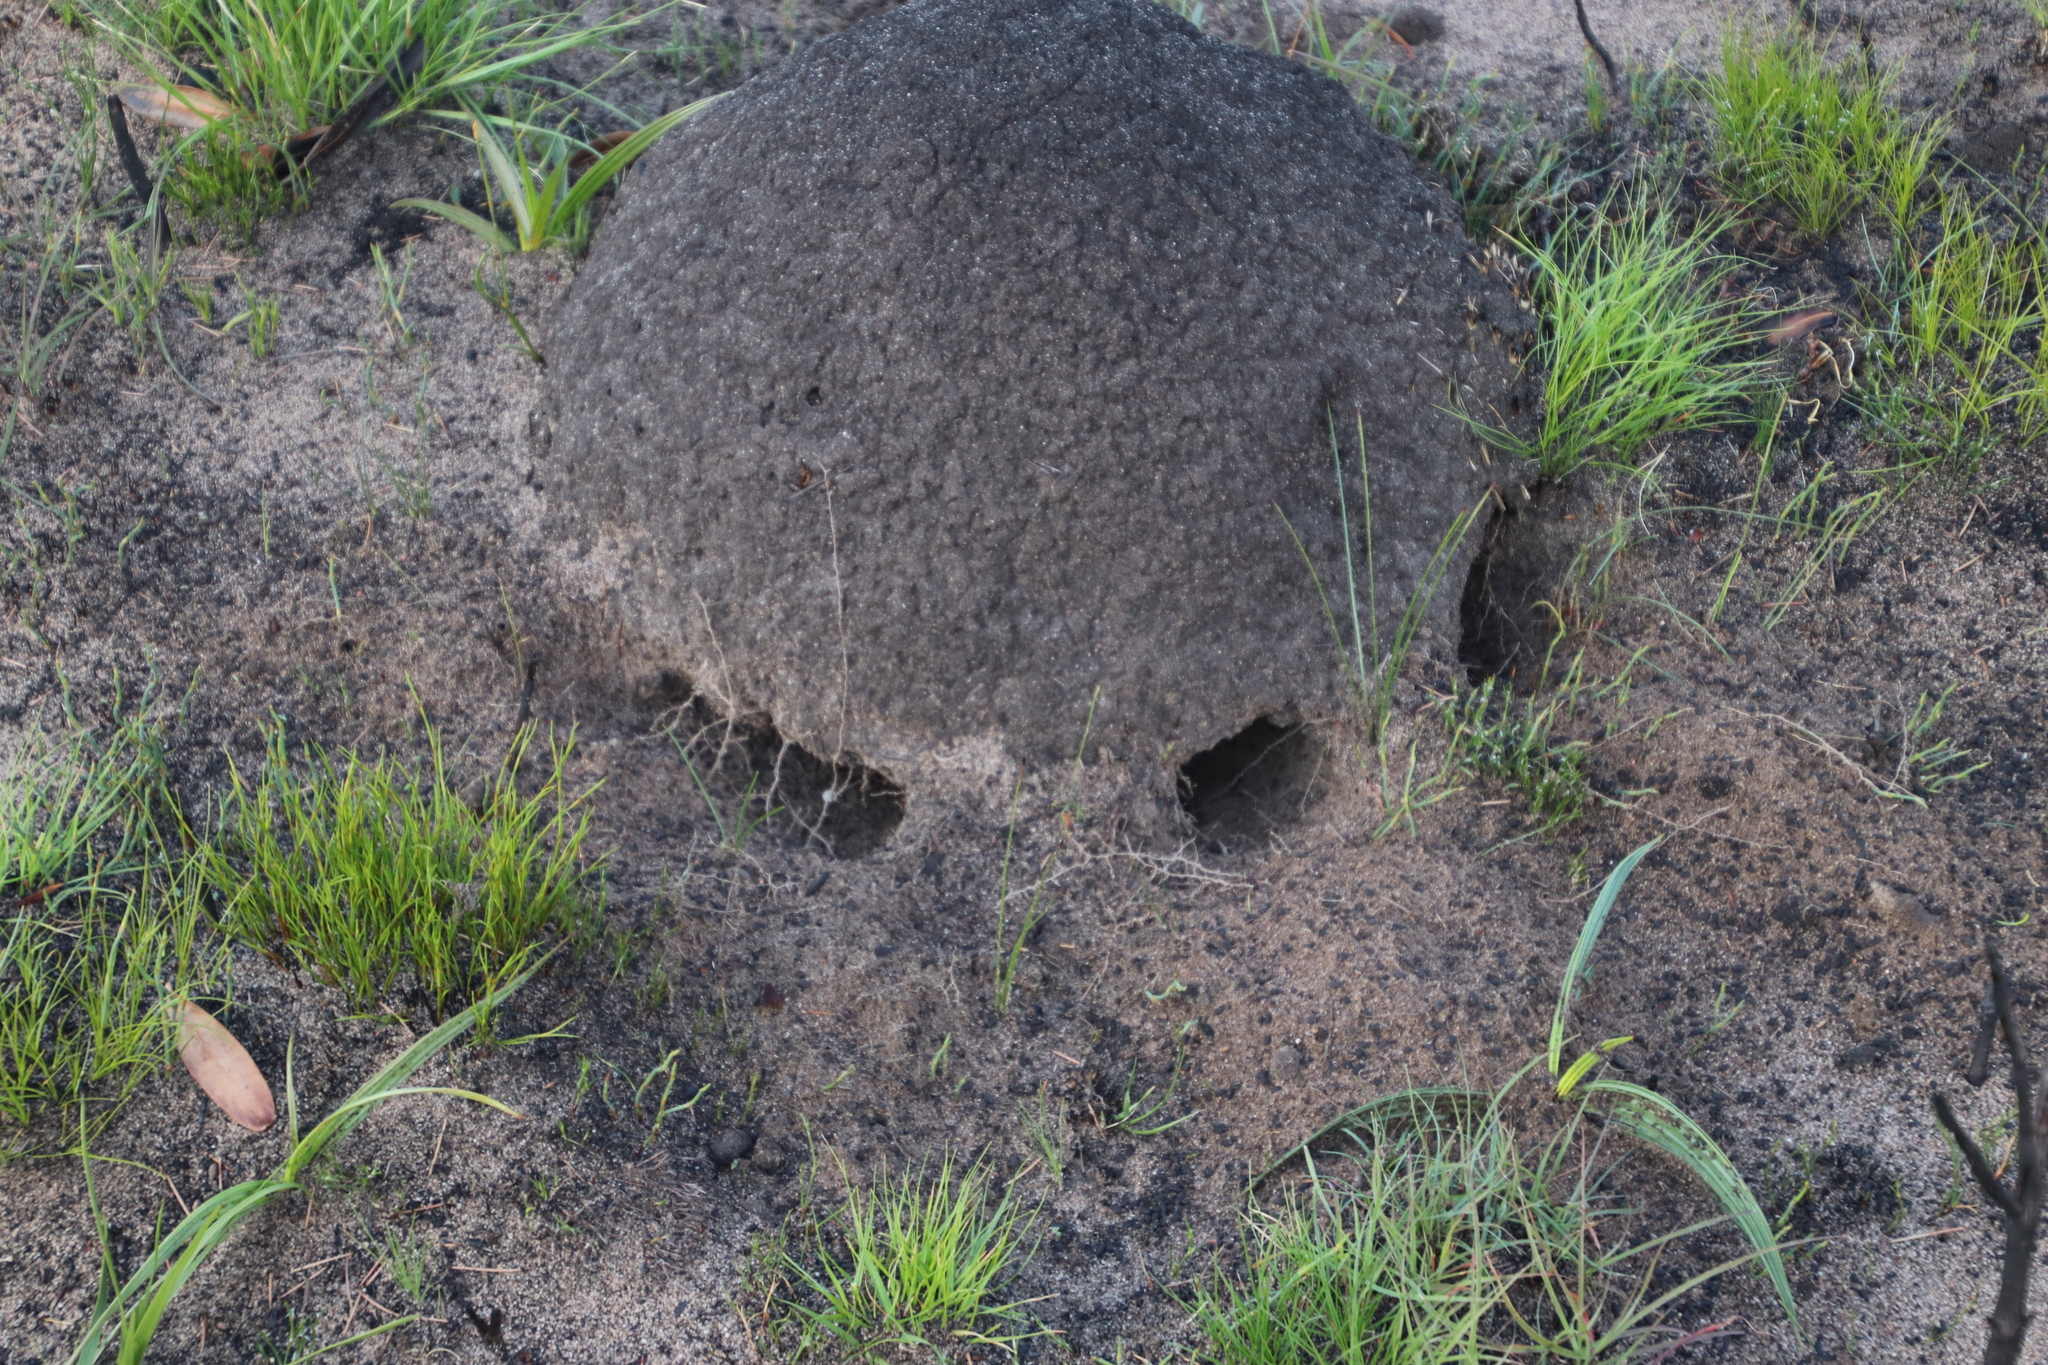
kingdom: Animalia
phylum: Arthropoda
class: Insecta
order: Blattodea
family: Termitidae
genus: Amitermes
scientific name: Amitermes hastatus
